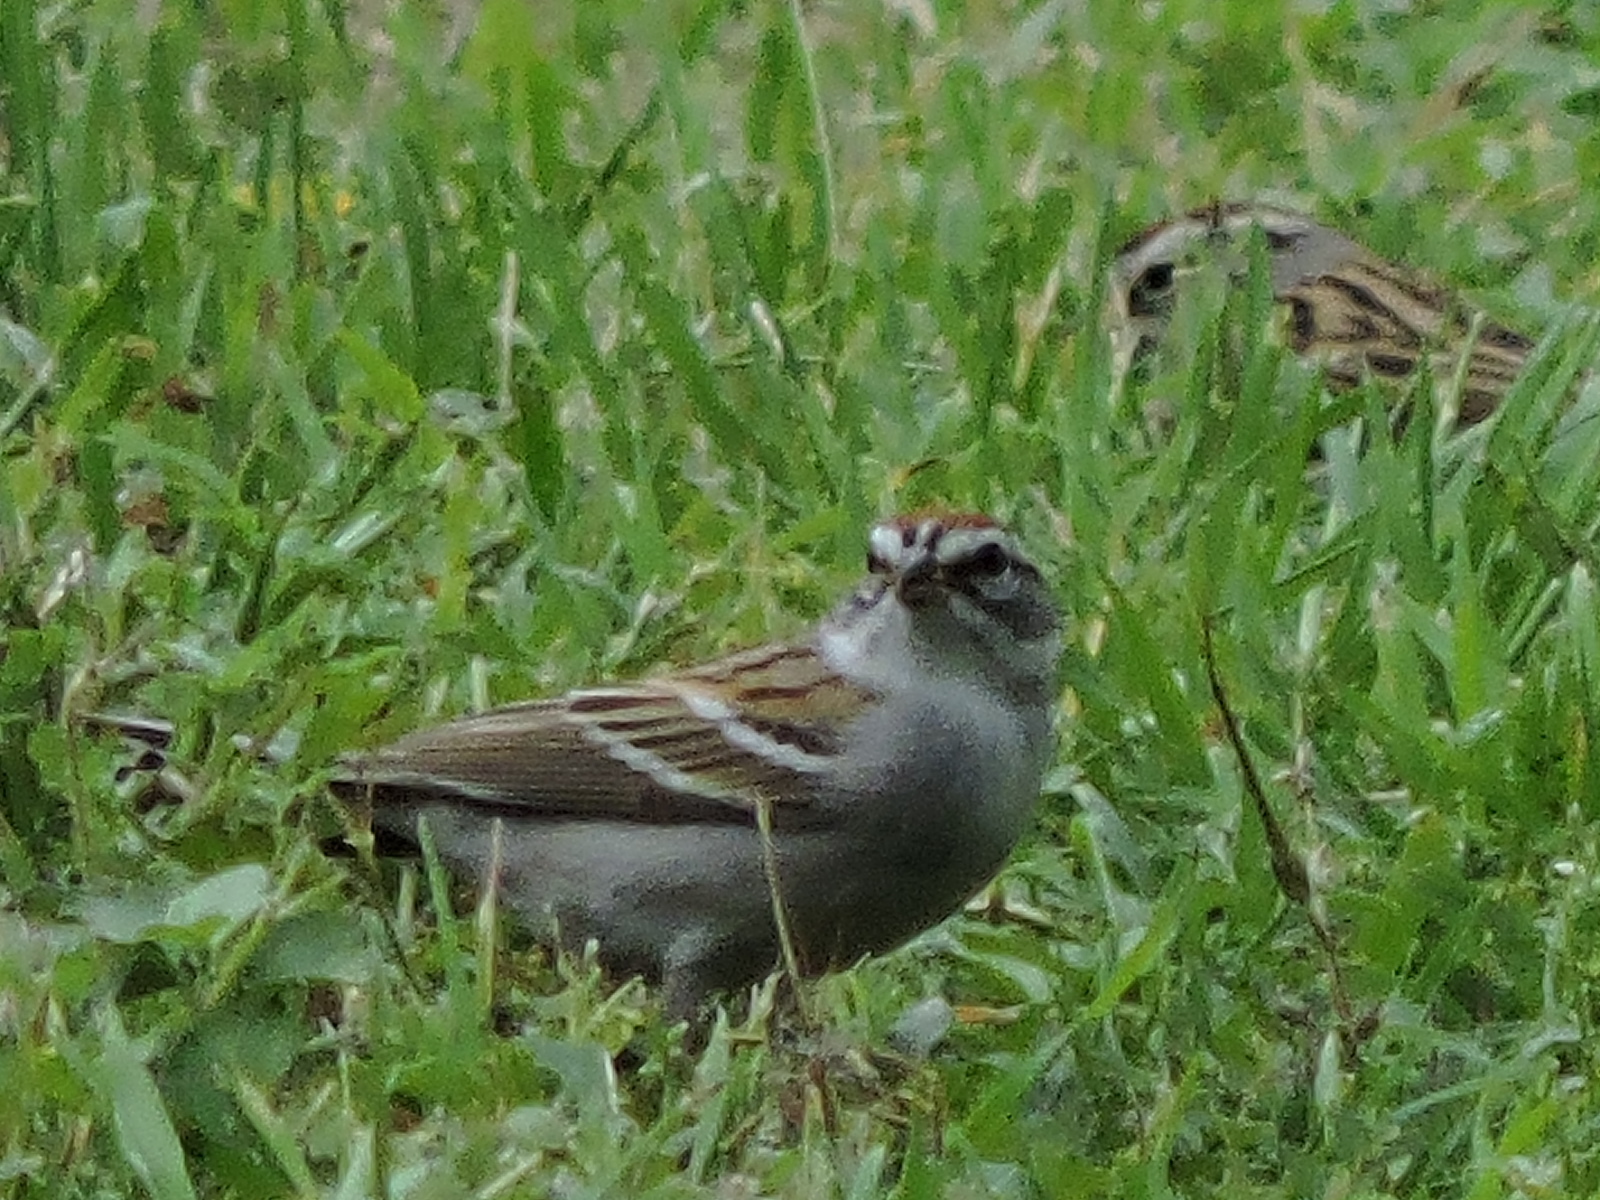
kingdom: Animalia
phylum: Chordata
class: Aves
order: Passeriformes
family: Passerellidae
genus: Spizella
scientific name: Spizella passerina
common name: Chipping sparrow
